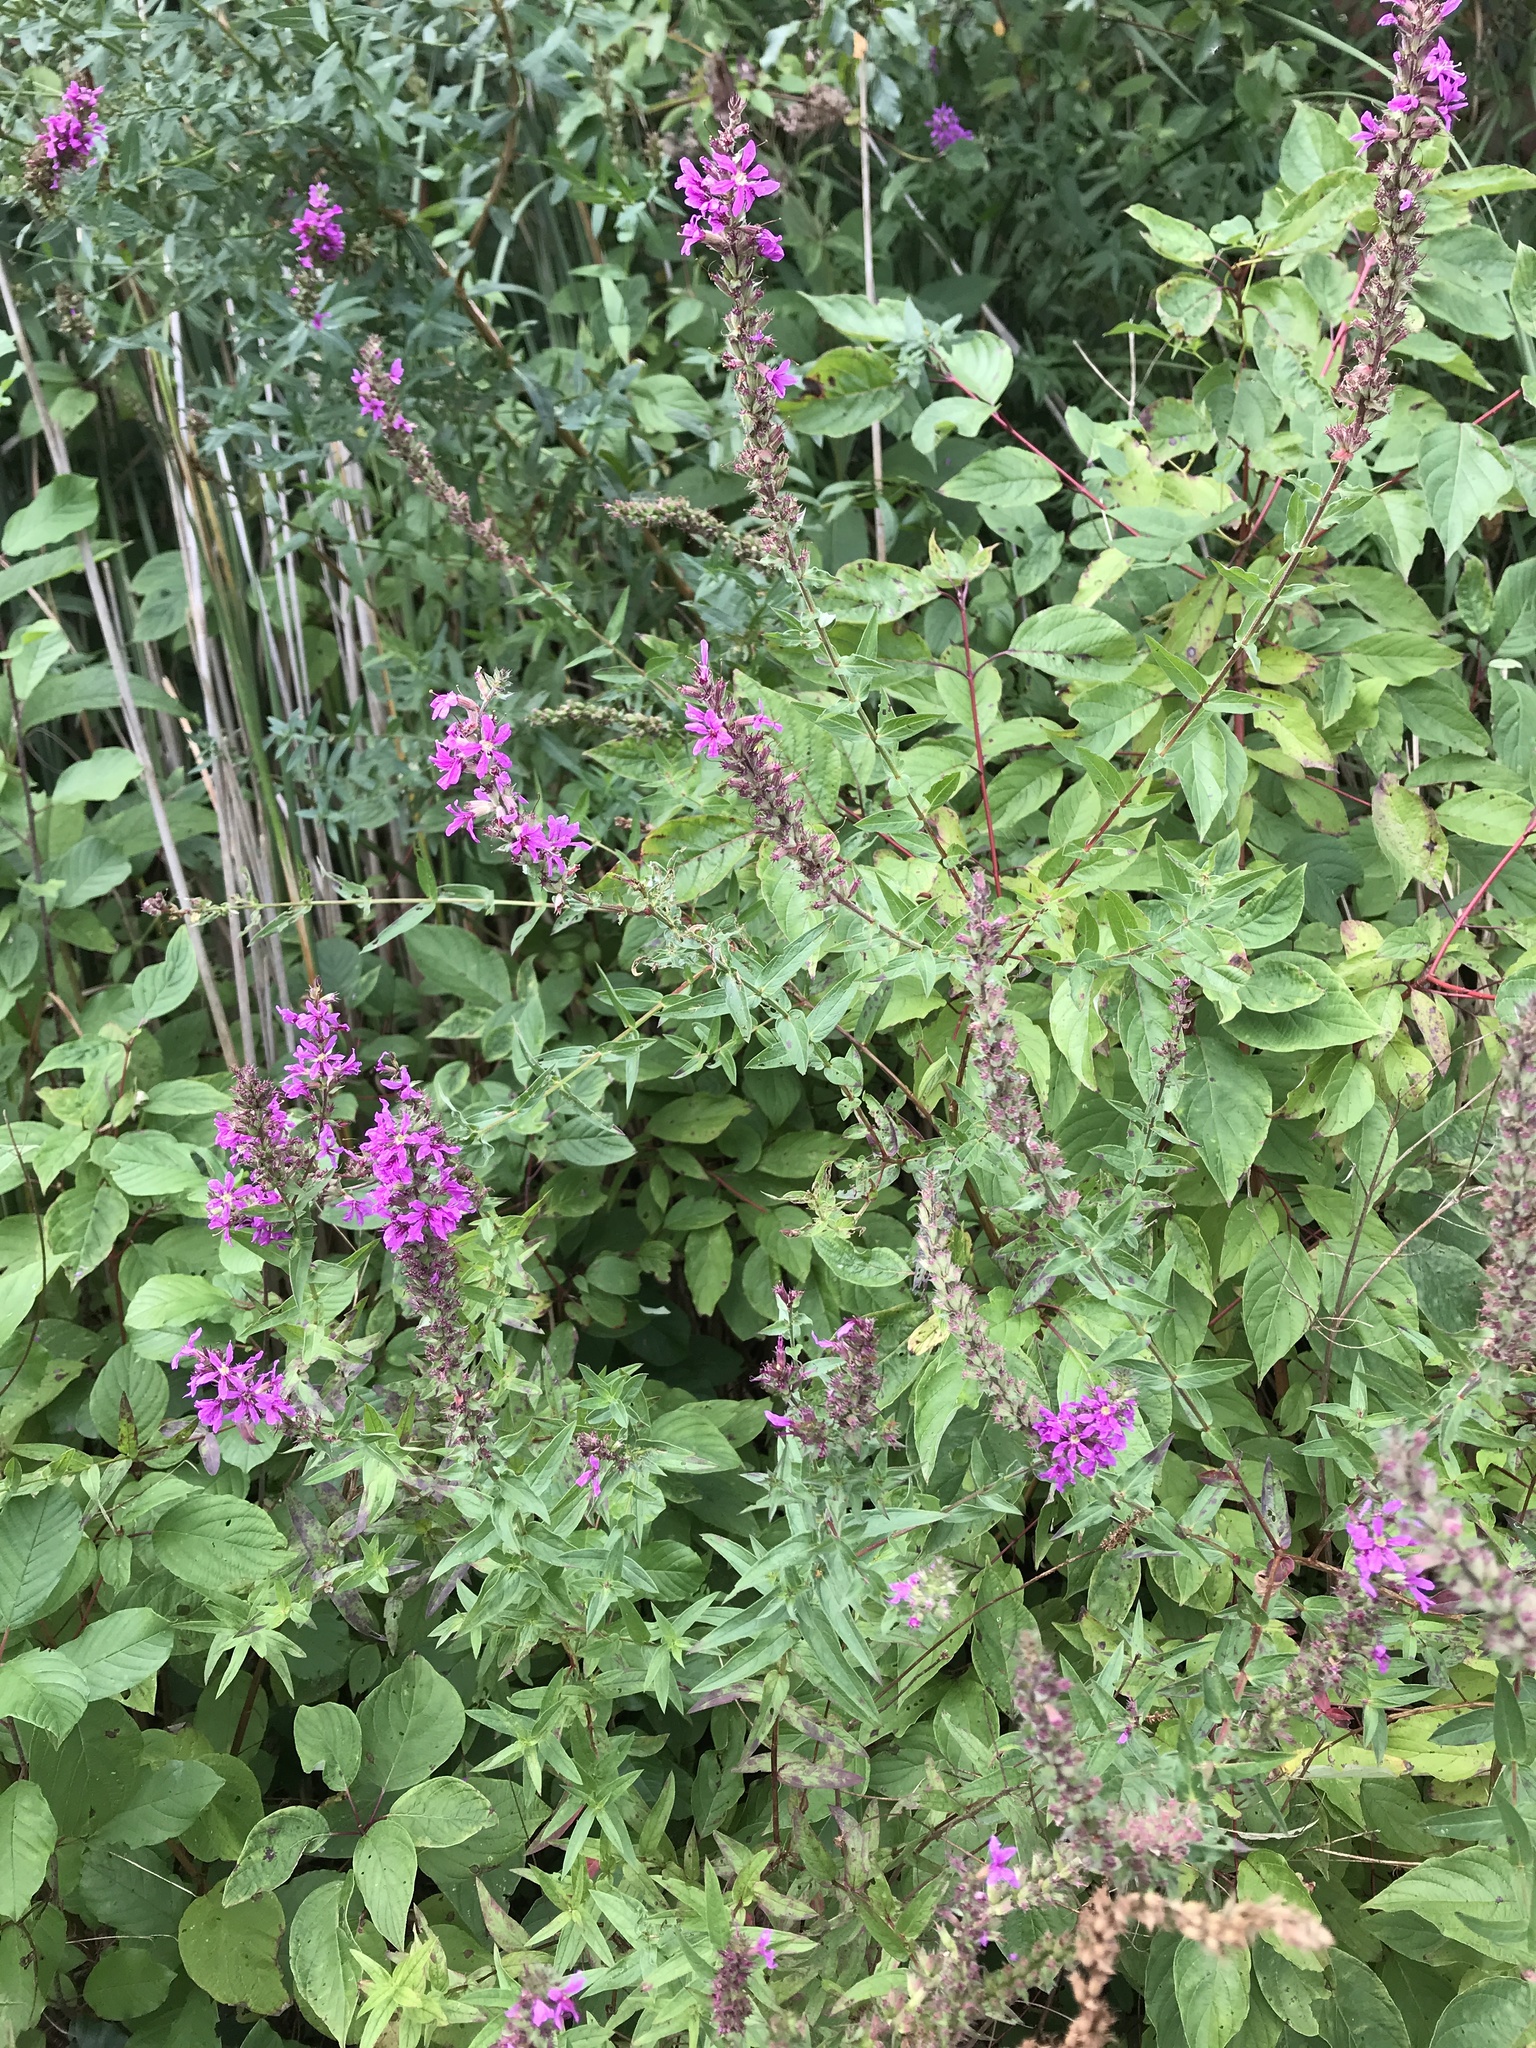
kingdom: Plantae
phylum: Tracheophyta
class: Magnoliopsida
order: Myrtales
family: Lythraceae
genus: Lythrum
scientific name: Lythrum salicaria
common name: Purple loosestrife
